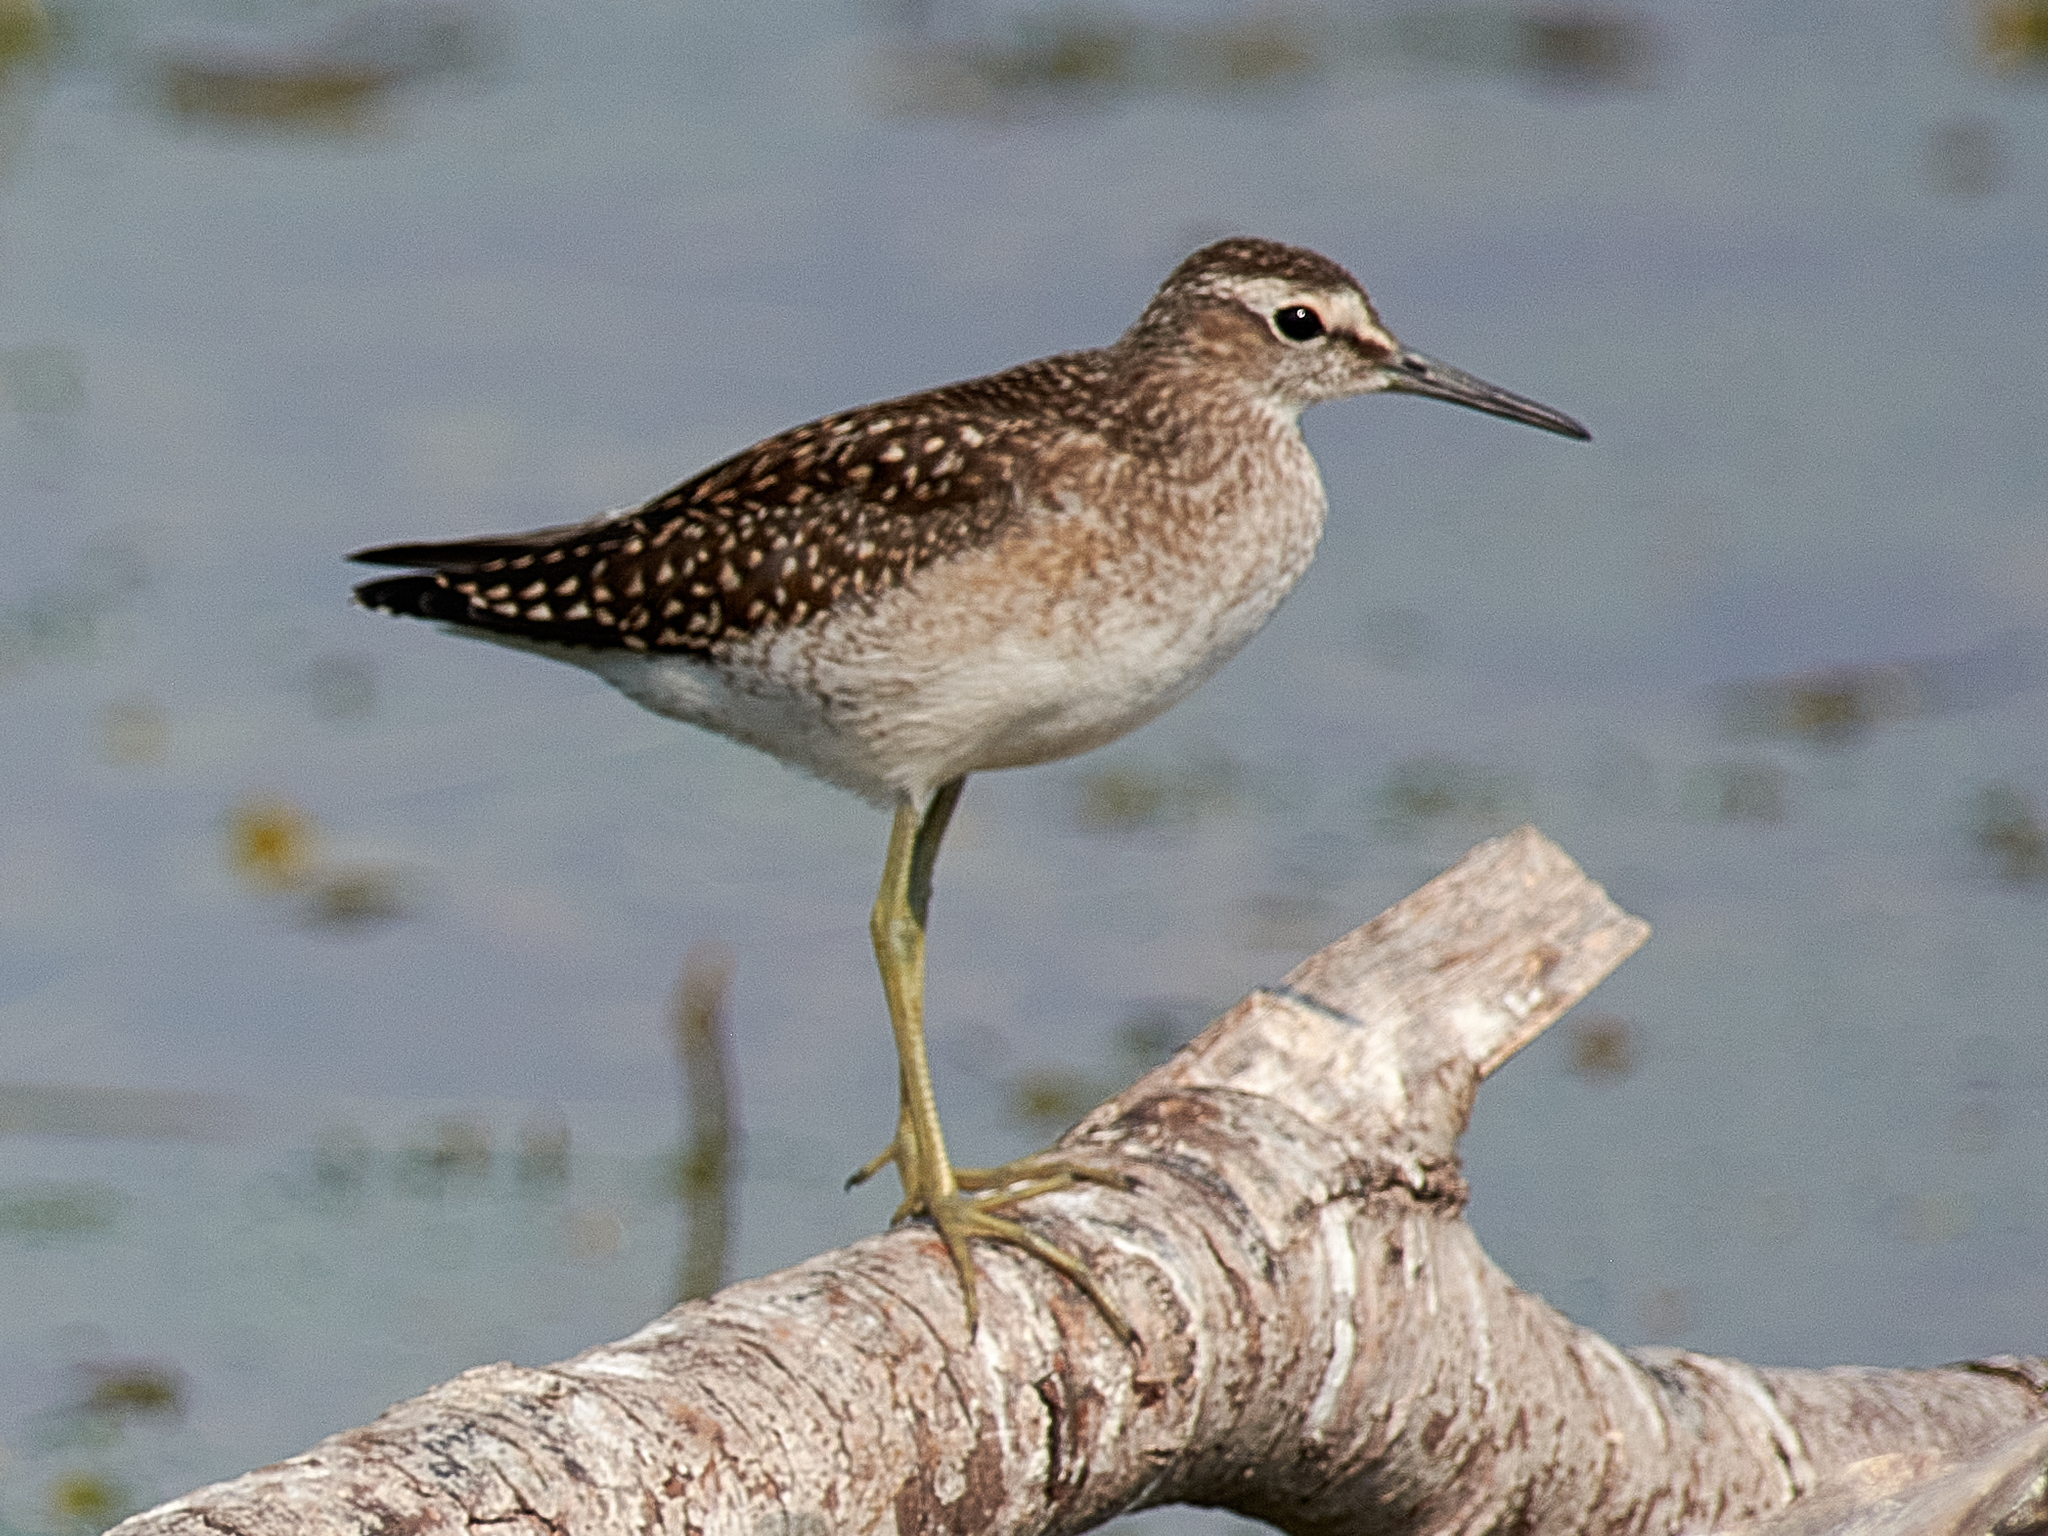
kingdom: Animalia
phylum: Chordata
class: Aves
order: Charadriiformes
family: Scolopacidae
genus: Tringa
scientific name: Tringa glareola
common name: Wood sandpiper
